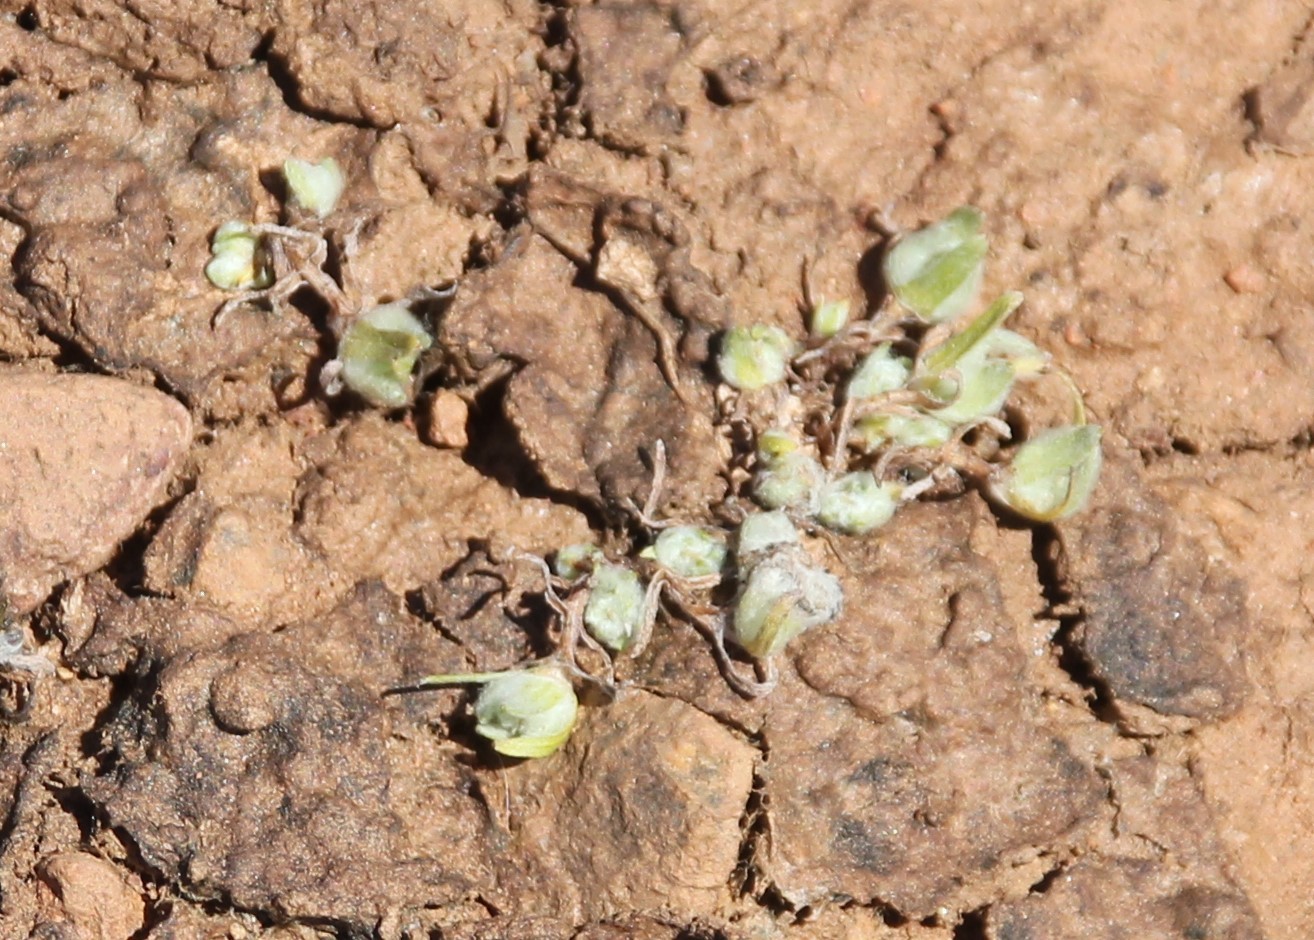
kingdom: Plantae
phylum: Tracheophyta
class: Magnoliopsida
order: Asterales
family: Asteraceae
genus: Psilocarphus
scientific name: Psilocarphus brevissimus
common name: Dwarf woollyheads
